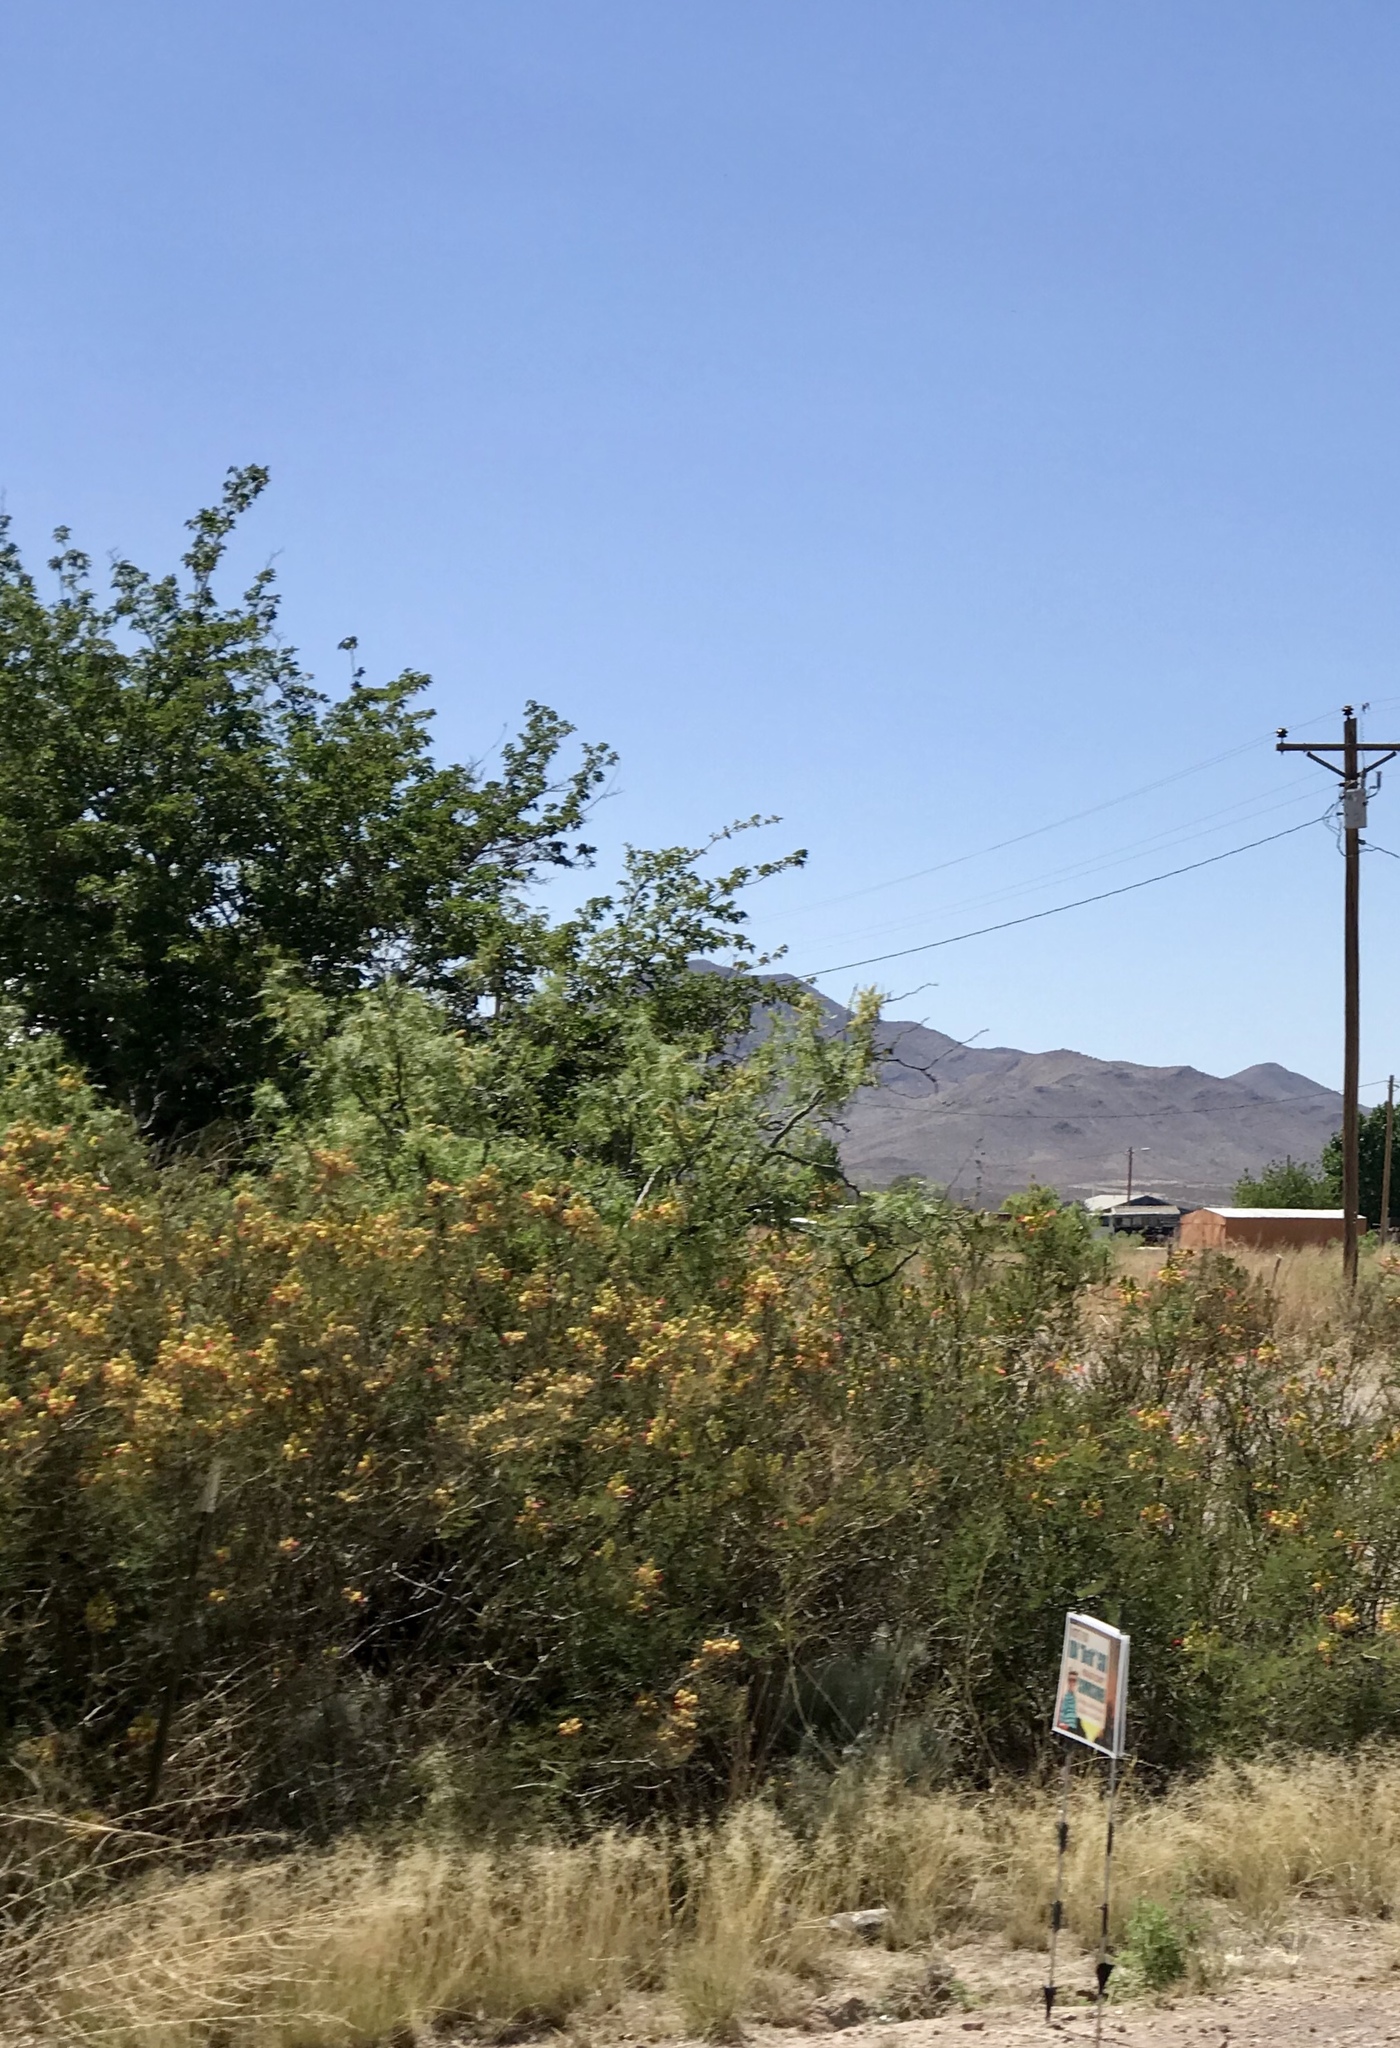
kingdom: Plantae
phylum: Tracheophyta
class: Magnoliopsida
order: Fabales
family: Fabaceae
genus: Erythrostemon
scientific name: Erythrostemon gilliesii
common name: Bird-of-paradise shrub
